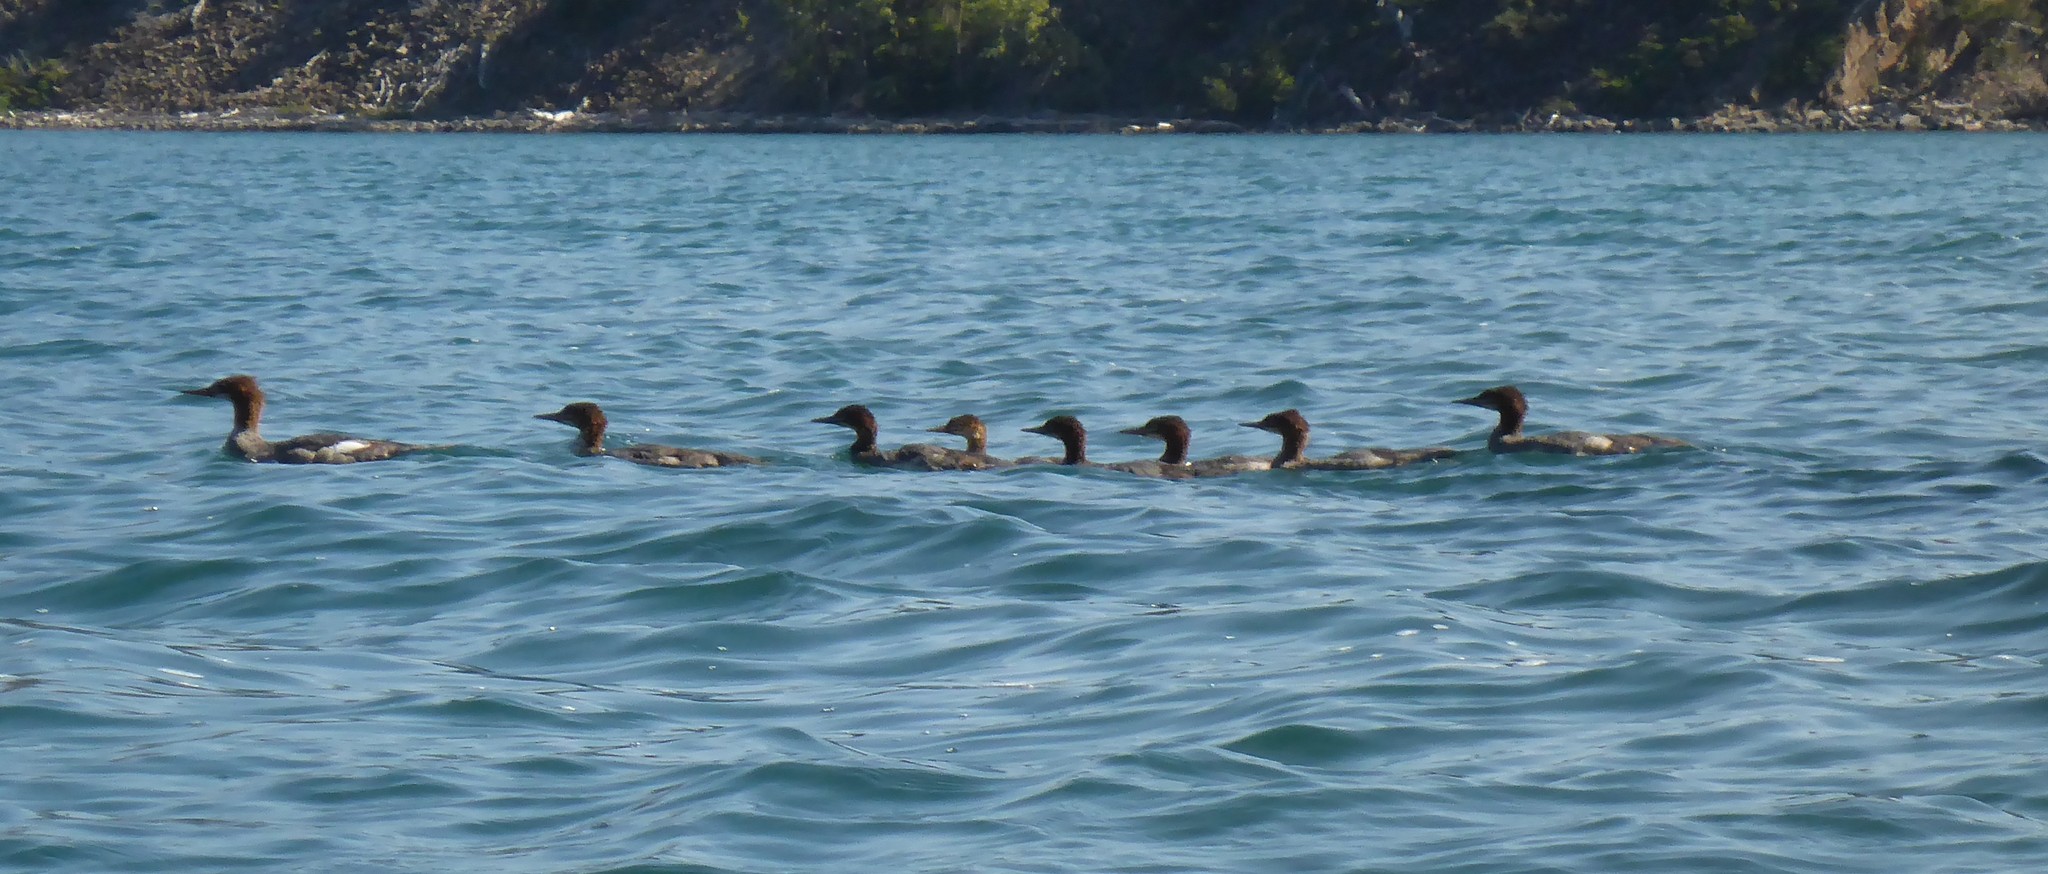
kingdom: Animalia
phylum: Chordata
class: Aves
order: Anseriformes
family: Anatidae
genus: Mergus
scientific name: Mergus merganser
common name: Common merganser
